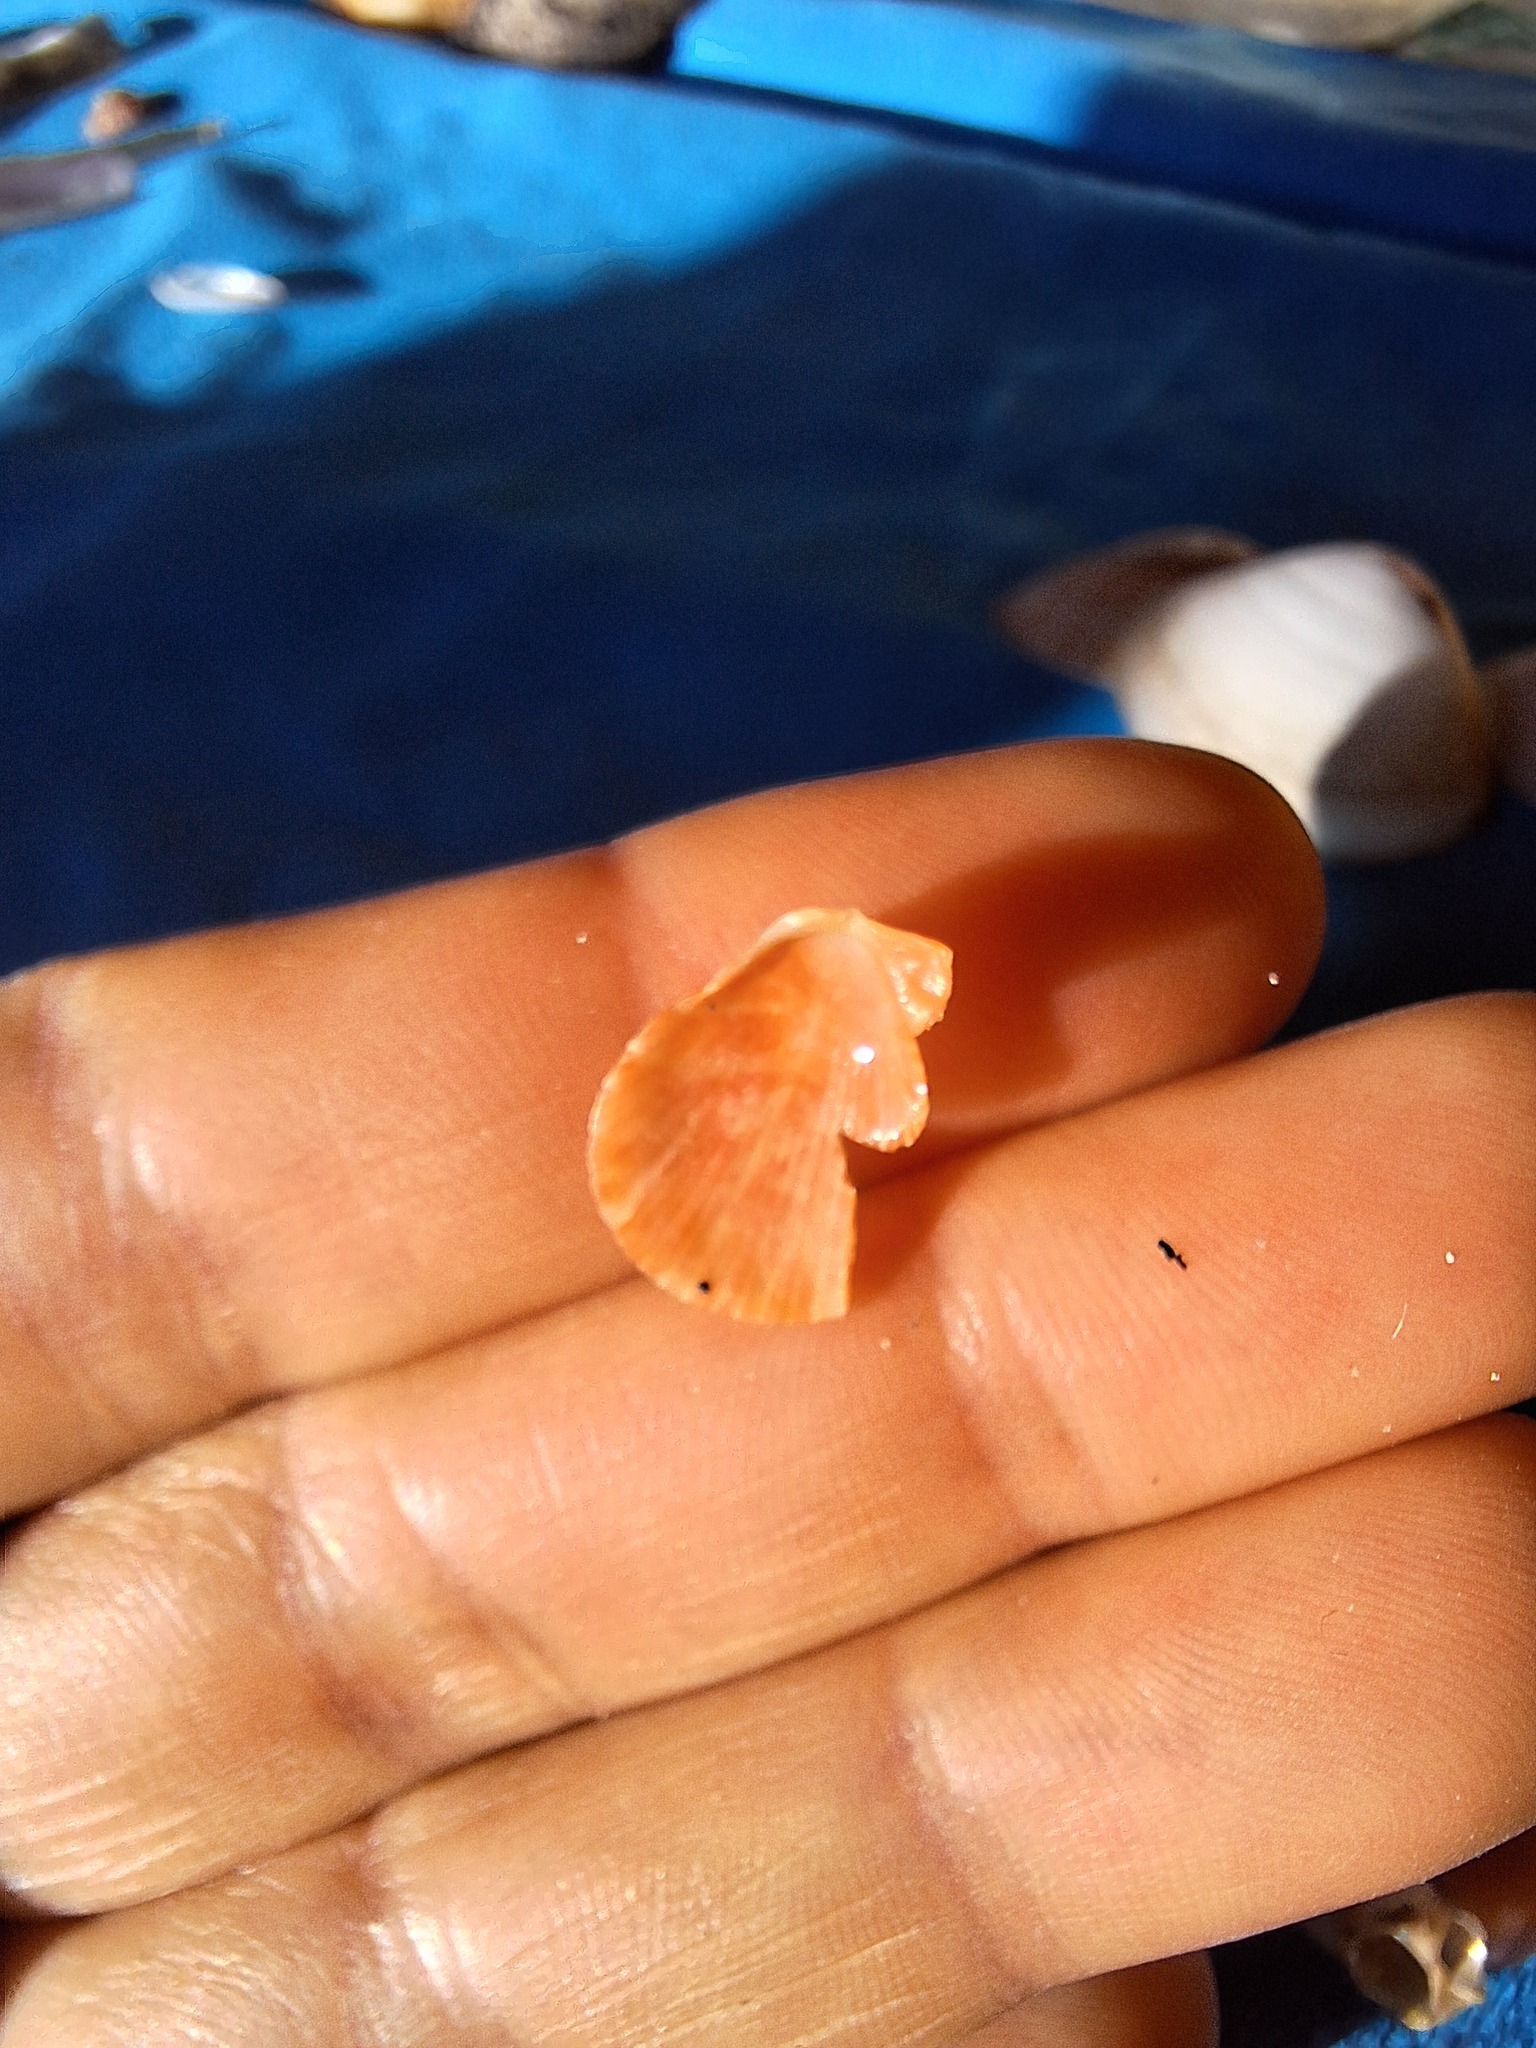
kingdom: Animalia
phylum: Mollusca
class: Bivalvia
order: Pectinida
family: Pectinidae
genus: Talochlamys
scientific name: Talochlamys multistriata
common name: Tinted scallop
